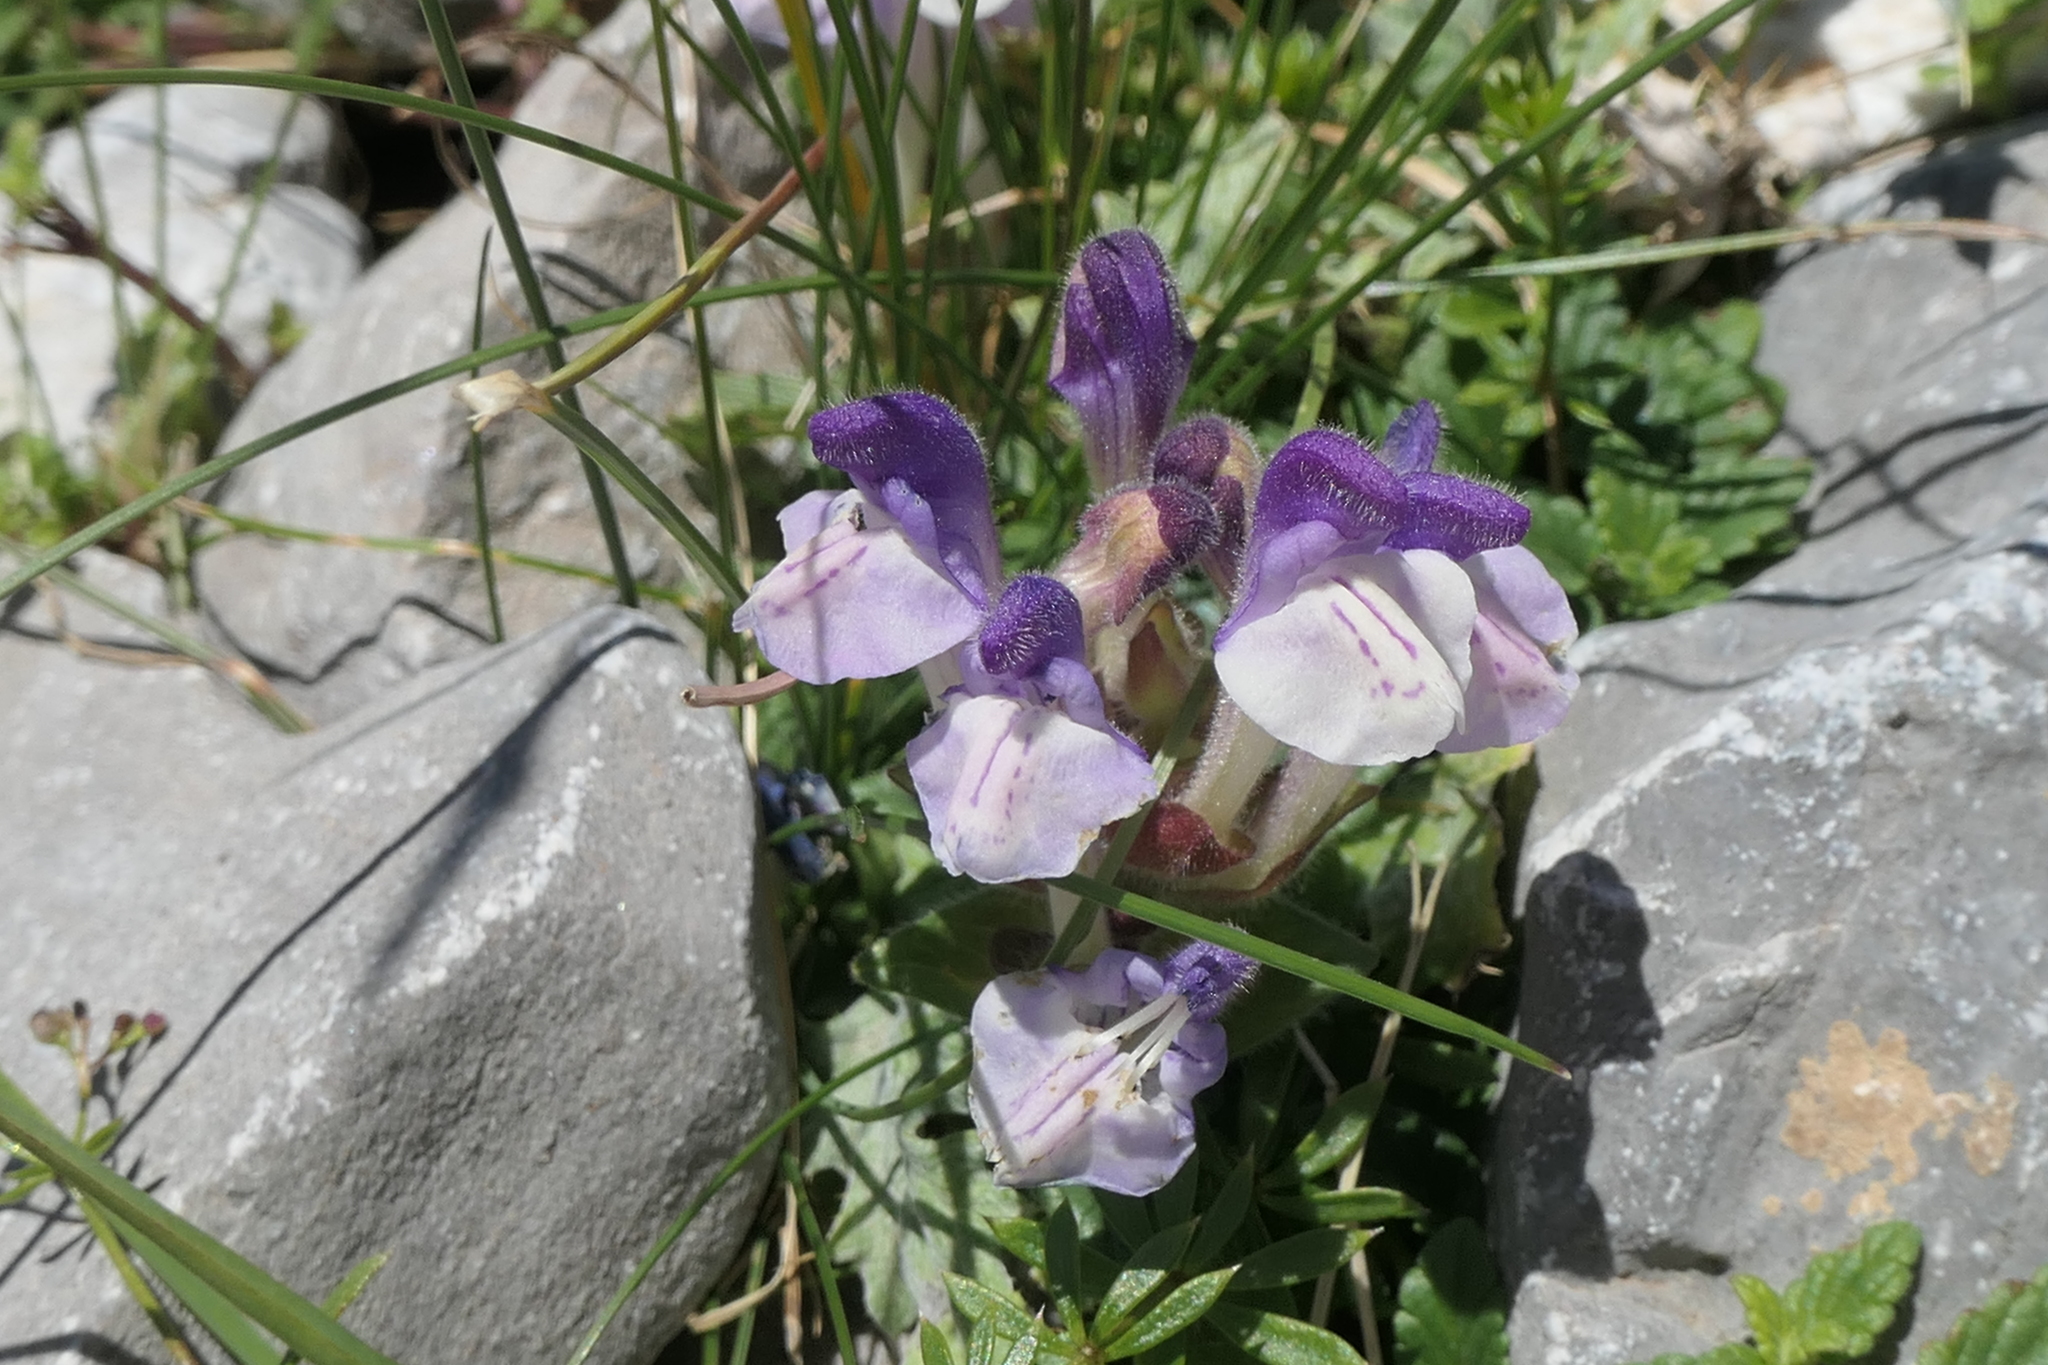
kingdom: Plantae
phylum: Tracheophyta
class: Magnoliopsida
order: Lamiales
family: Lamiaceae
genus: Scutellaria
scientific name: Scutellaria alpina
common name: Alpine scullcap
